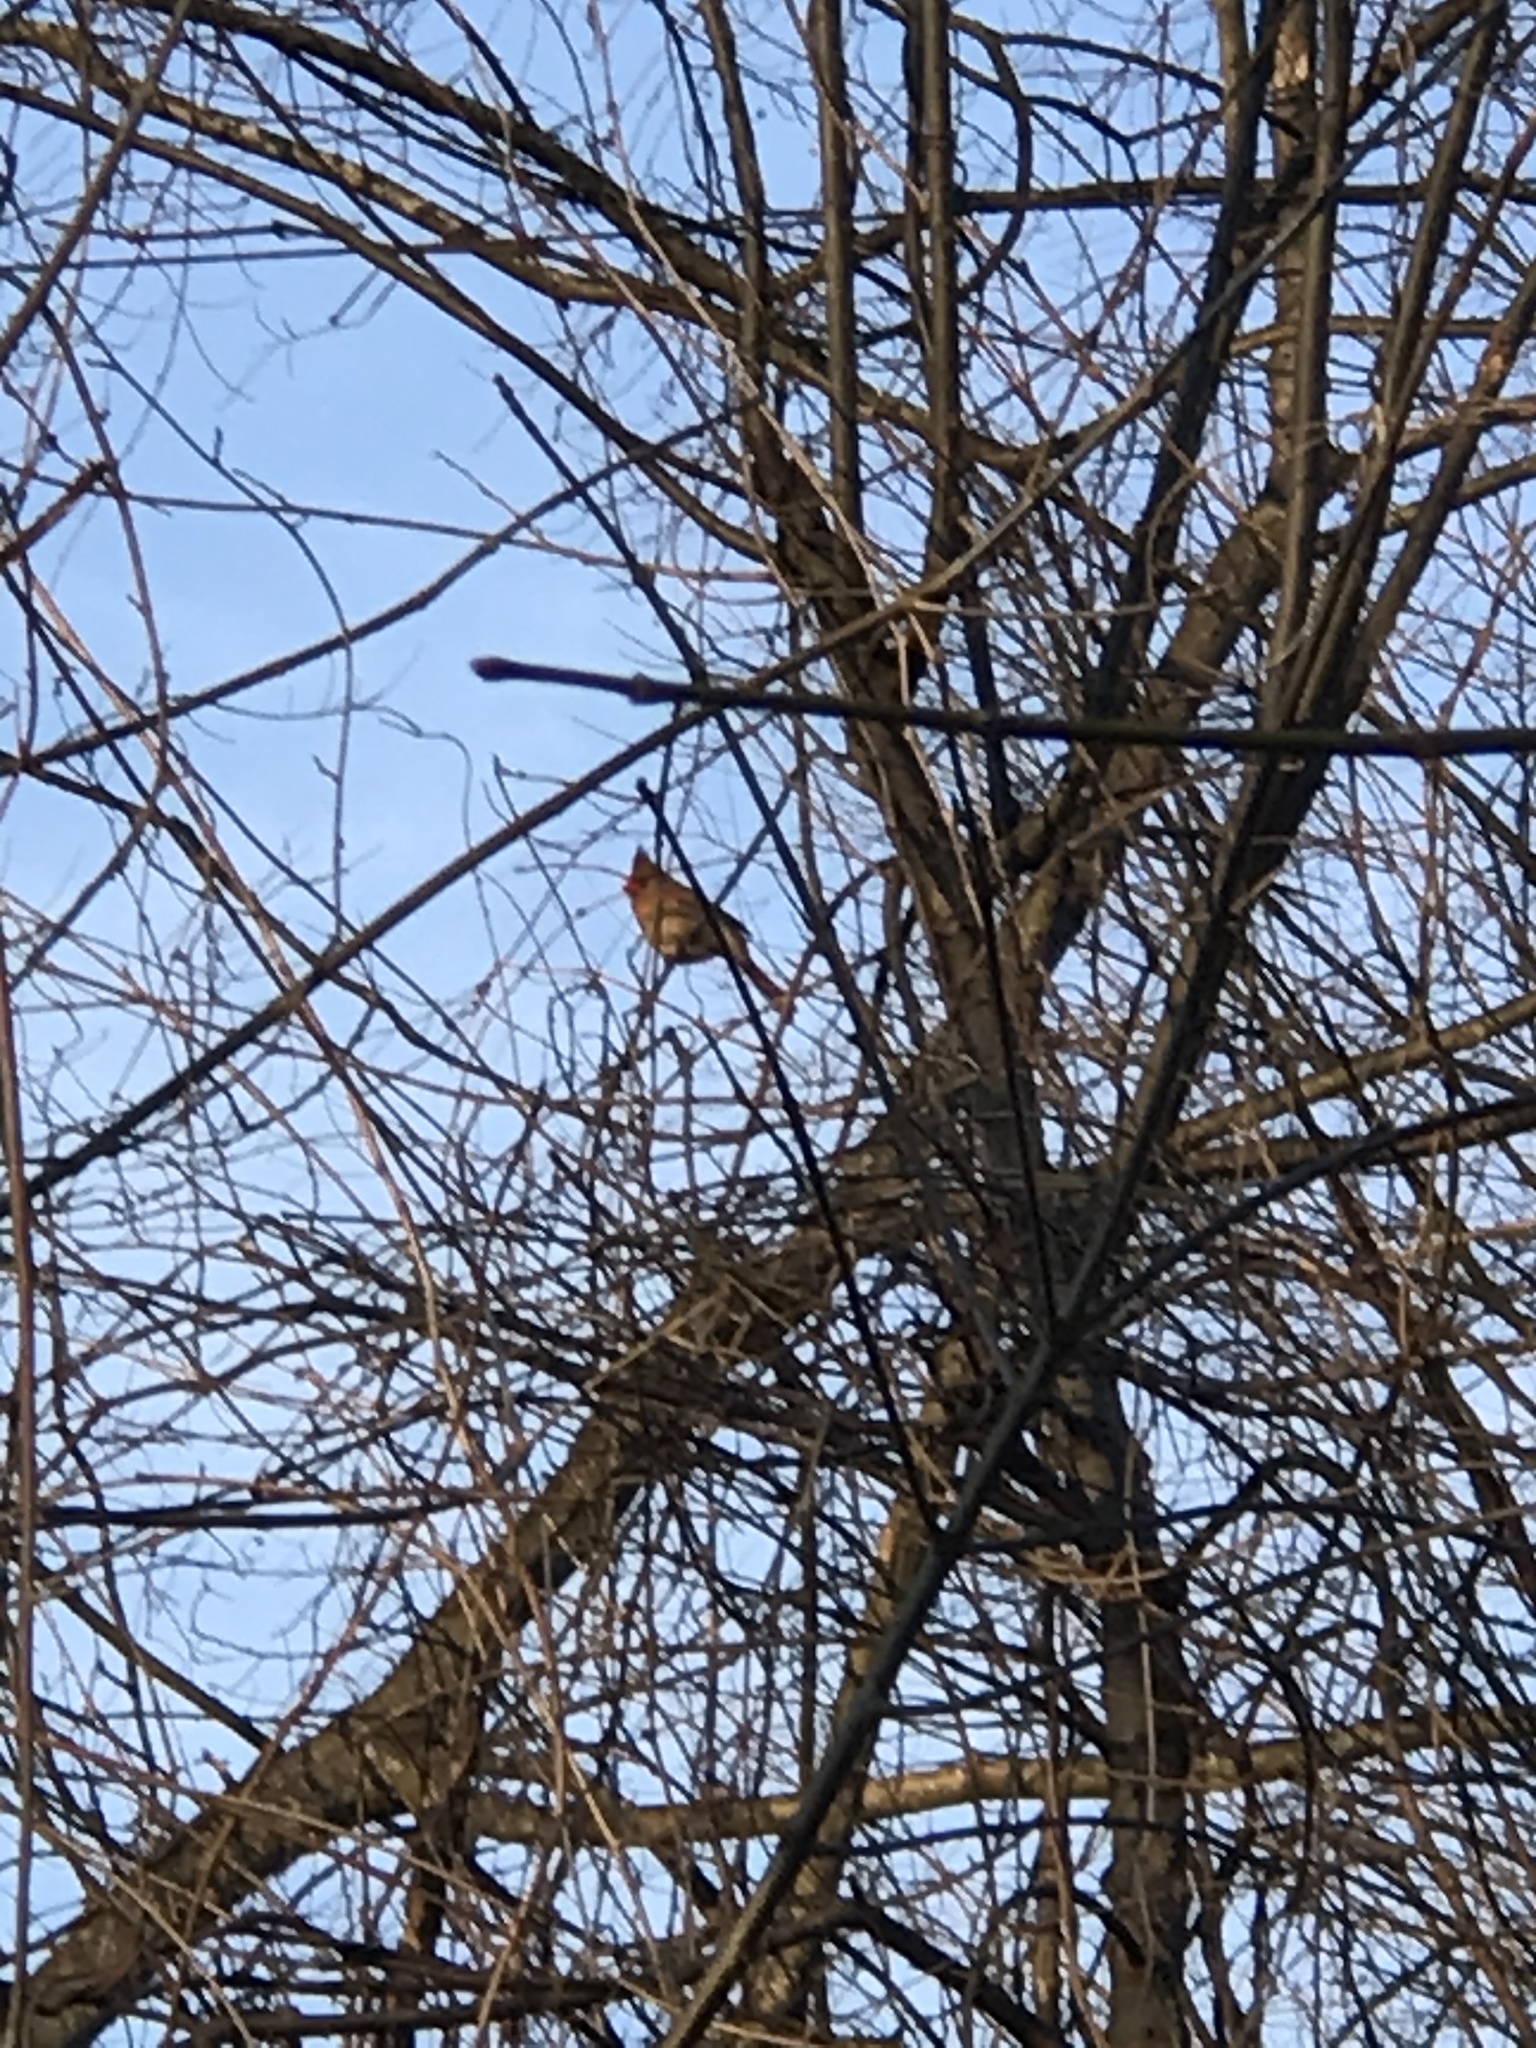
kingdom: Animalia
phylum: Chordata
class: Aves
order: Passeriformes
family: Cardinalidae
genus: Cardinalis
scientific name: Cardinalis cardinalis
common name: Northern cardinal
